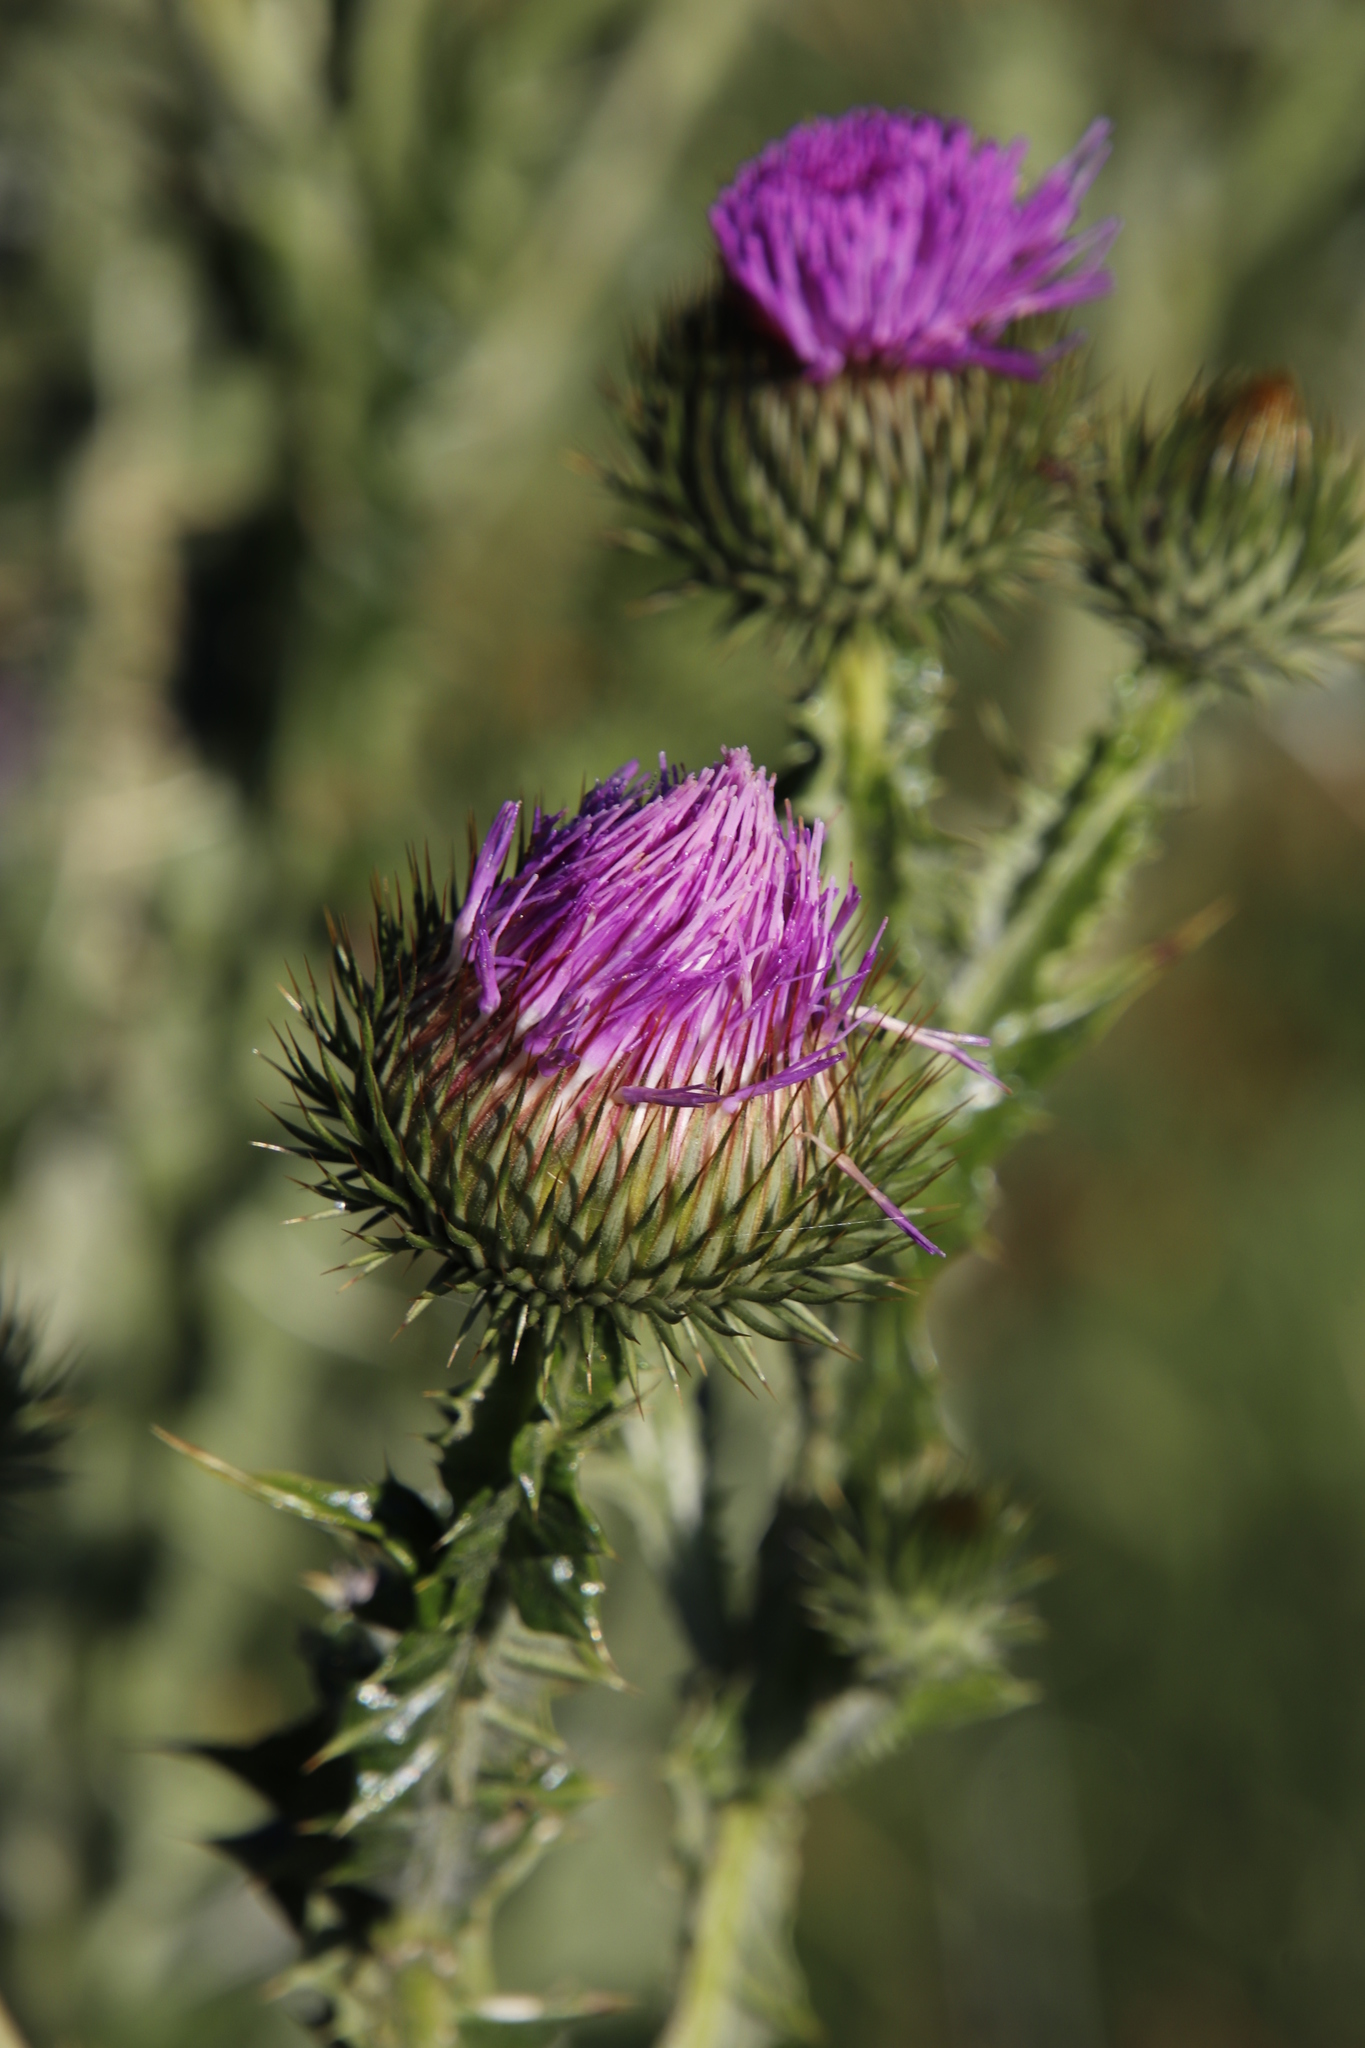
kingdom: Plantae
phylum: Tracheophyta
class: Magnoliopsida
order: Asterales
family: Asteraceae
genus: Onopordum
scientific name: Onopordum acanthium
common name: Scotch thistle
